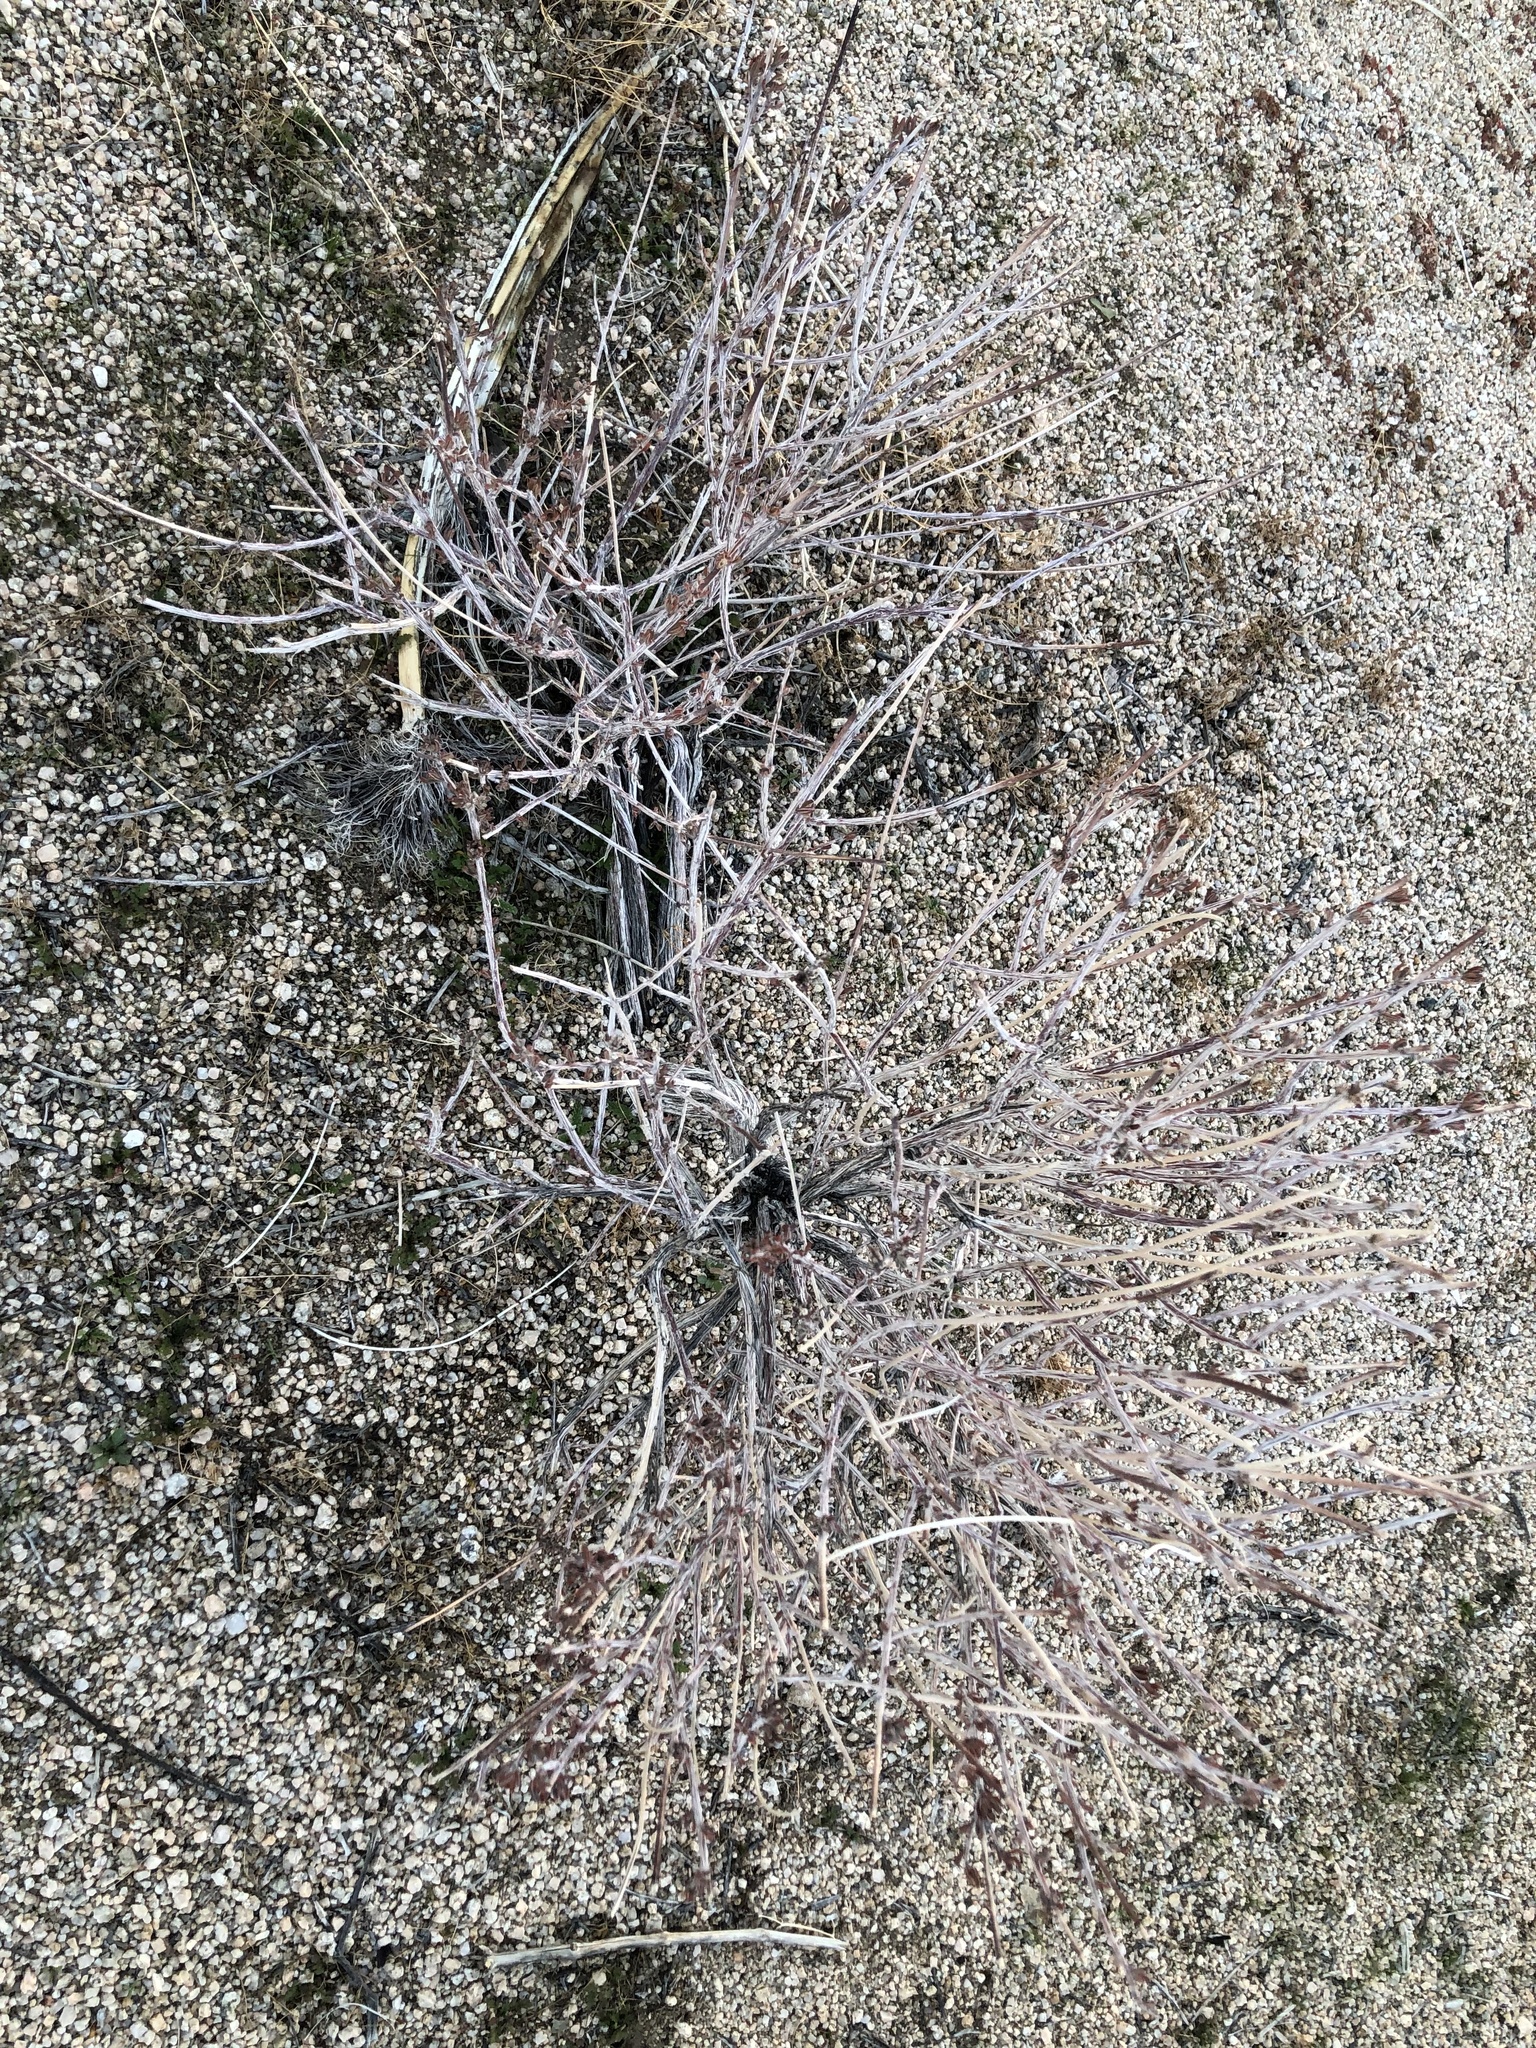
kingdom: Plantae
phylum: Tracheophyta
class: Magnoliopsida
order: Caryophyllales
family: Cactaceae
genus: Cylindropuntia
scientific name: Cylindropuntia ramosissima
